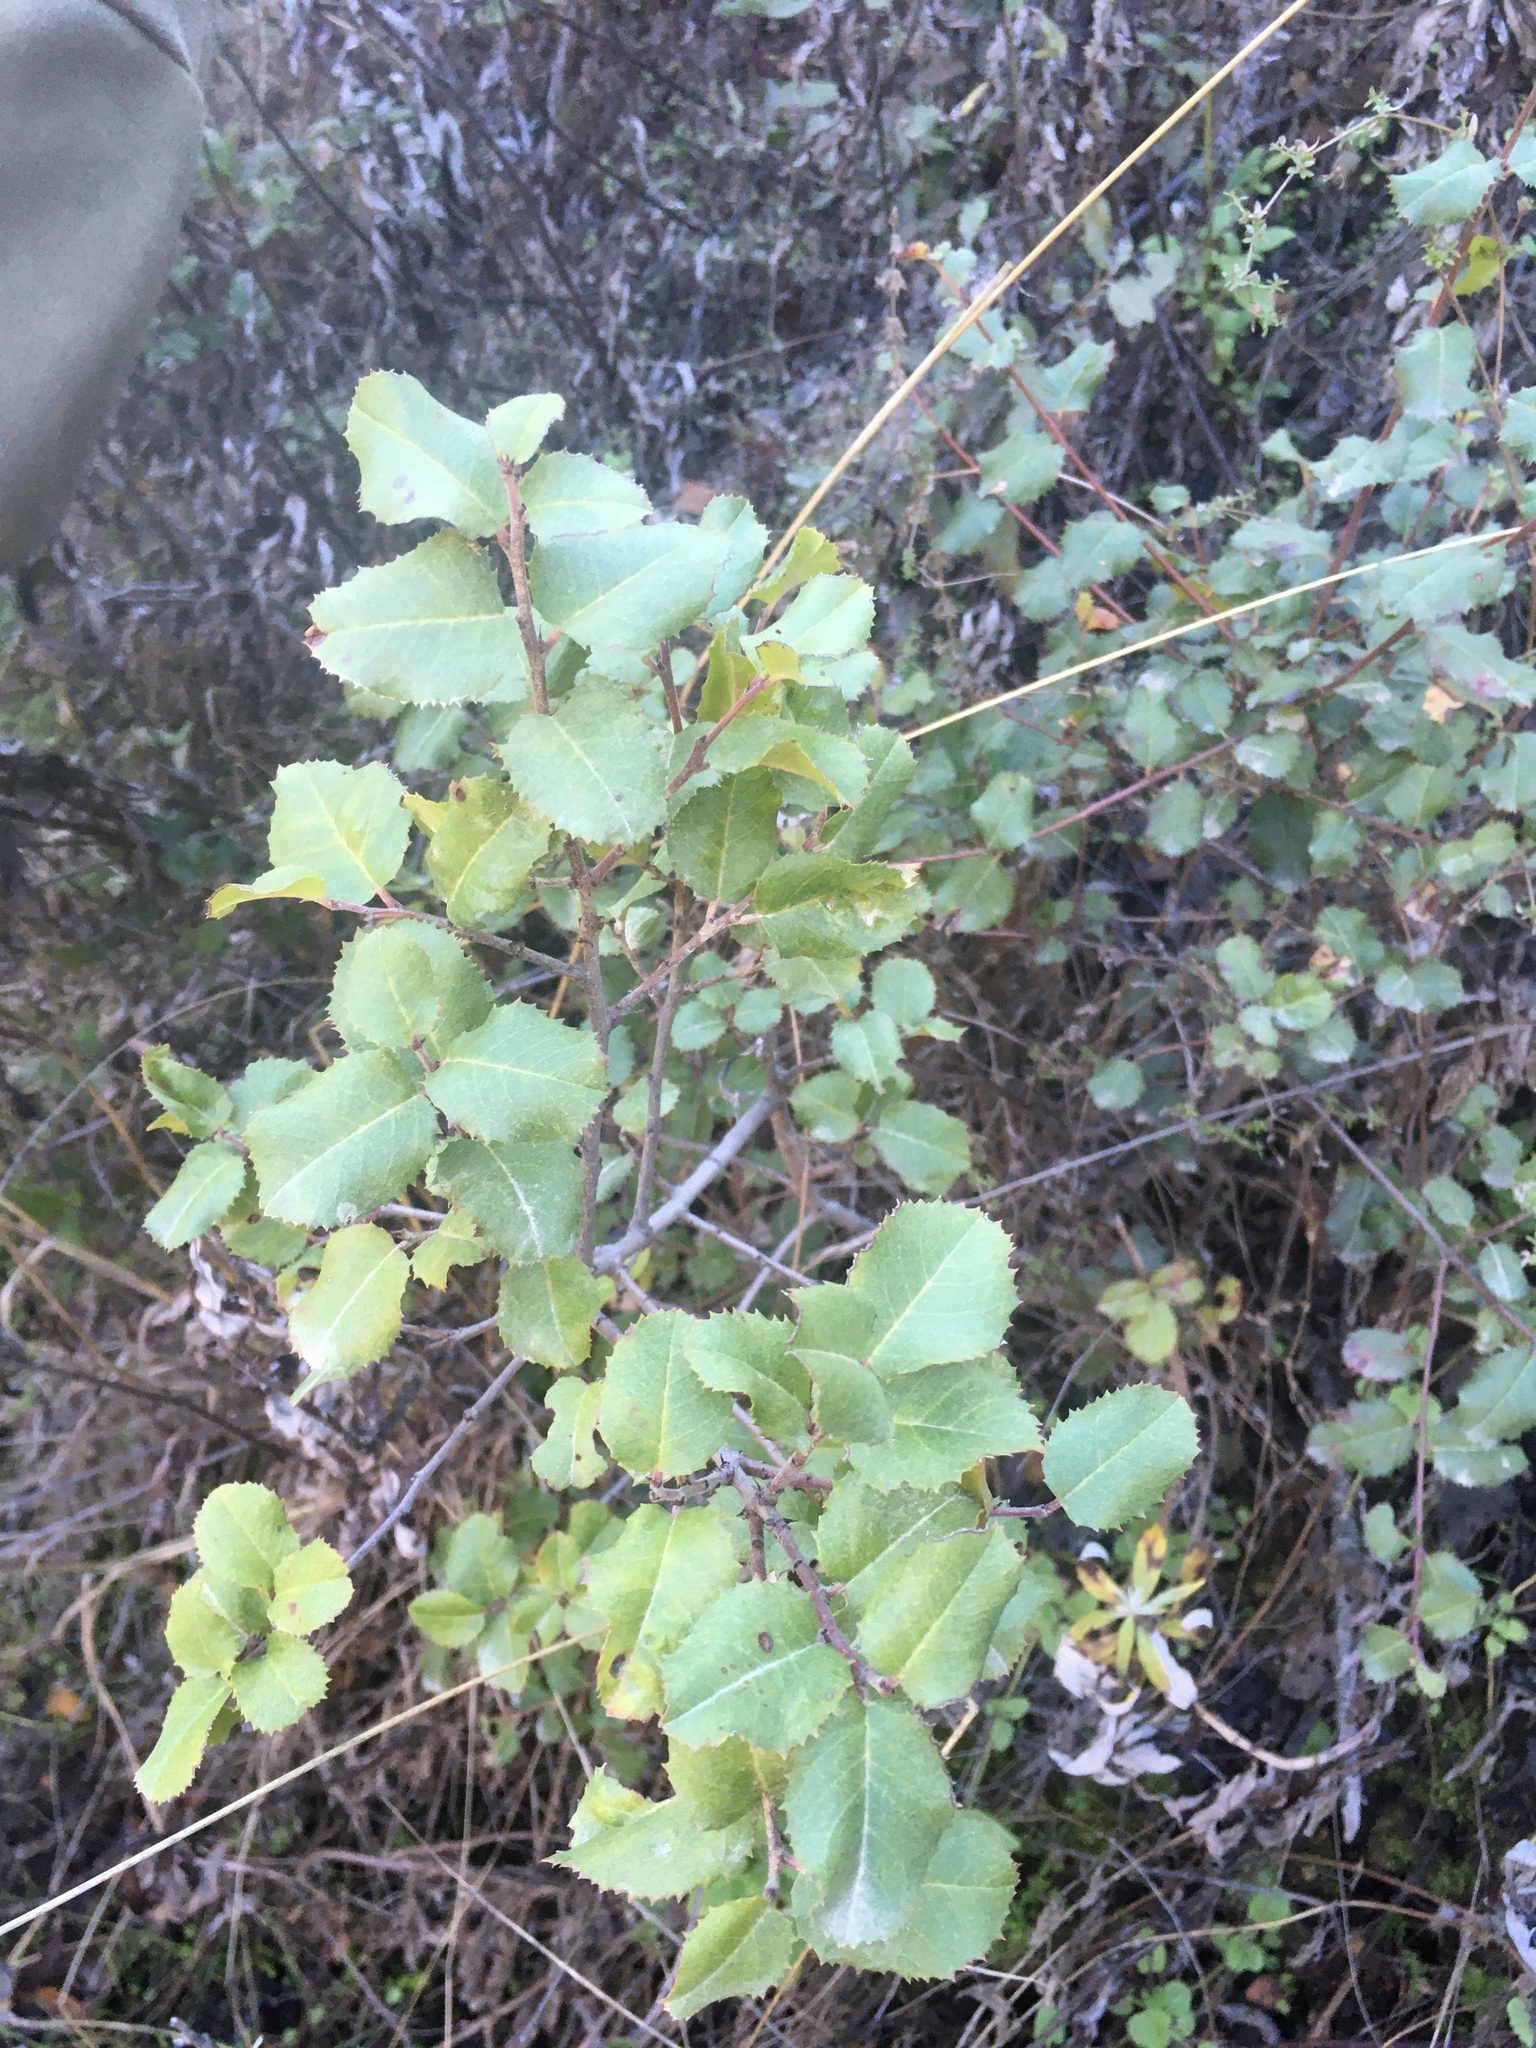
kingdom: Plantae
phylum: Tracheophyta
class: Magnoliopsida
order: Rosales
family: Rhamnaceae
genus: Endotropis
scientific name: Endotropis crocea
